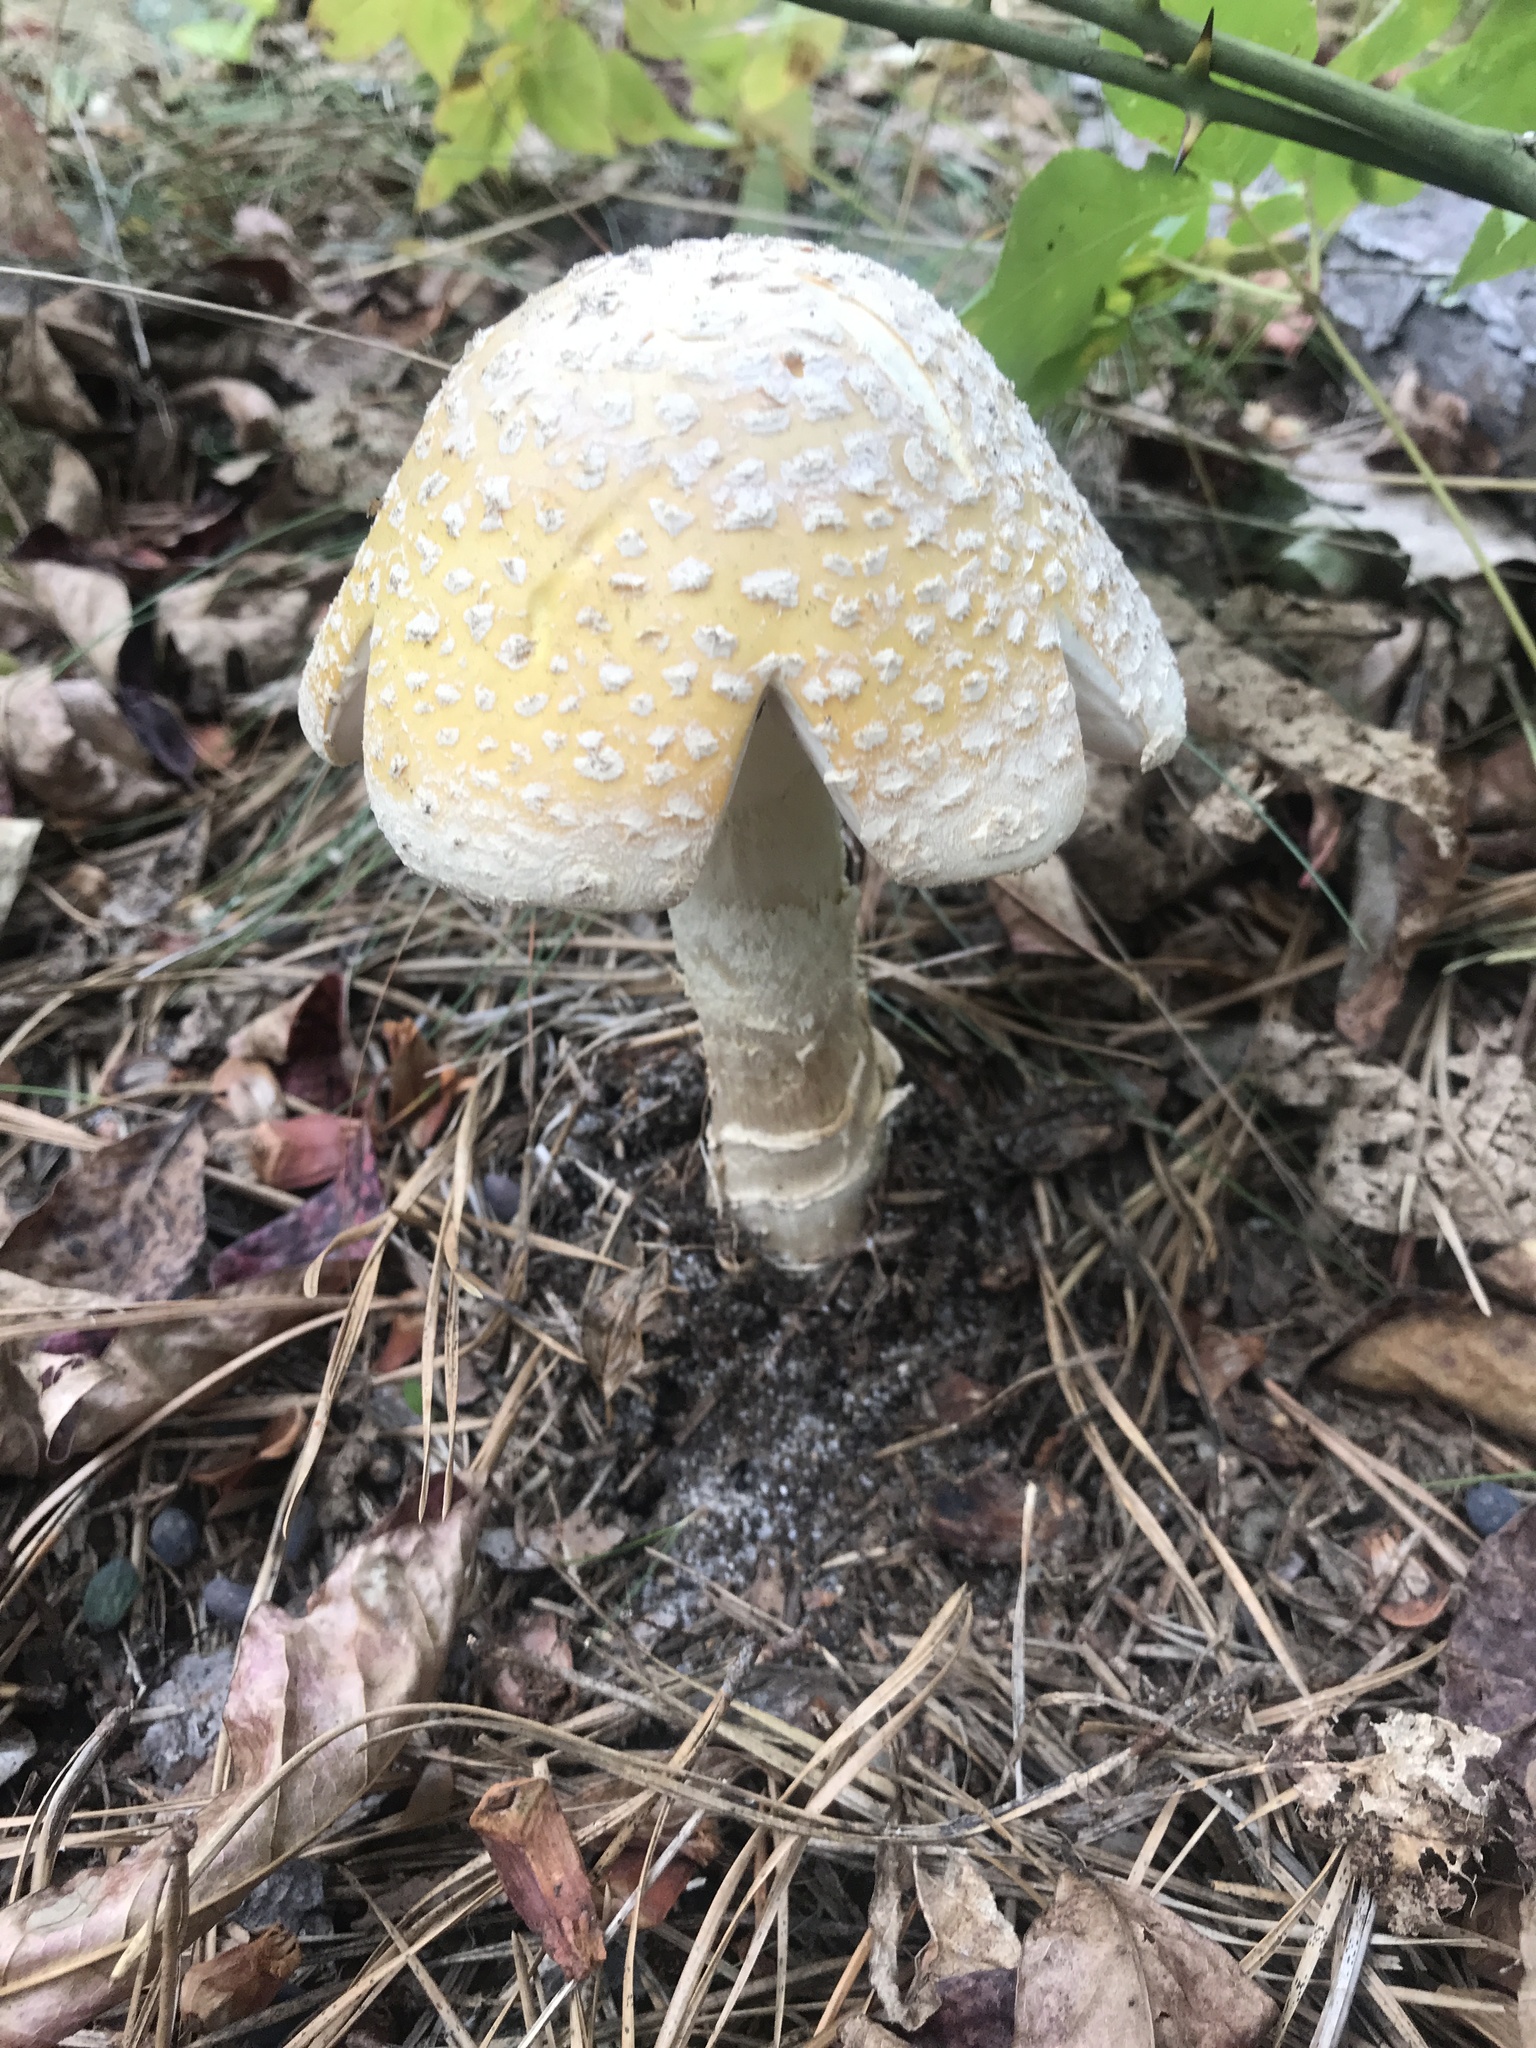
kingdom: Fungi
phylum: Basidiomycota
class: Agaricomycetes
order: Agaricales
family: Amanitaceae
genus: Amanita
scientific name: Amanita muscaria
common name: Fly agaric
